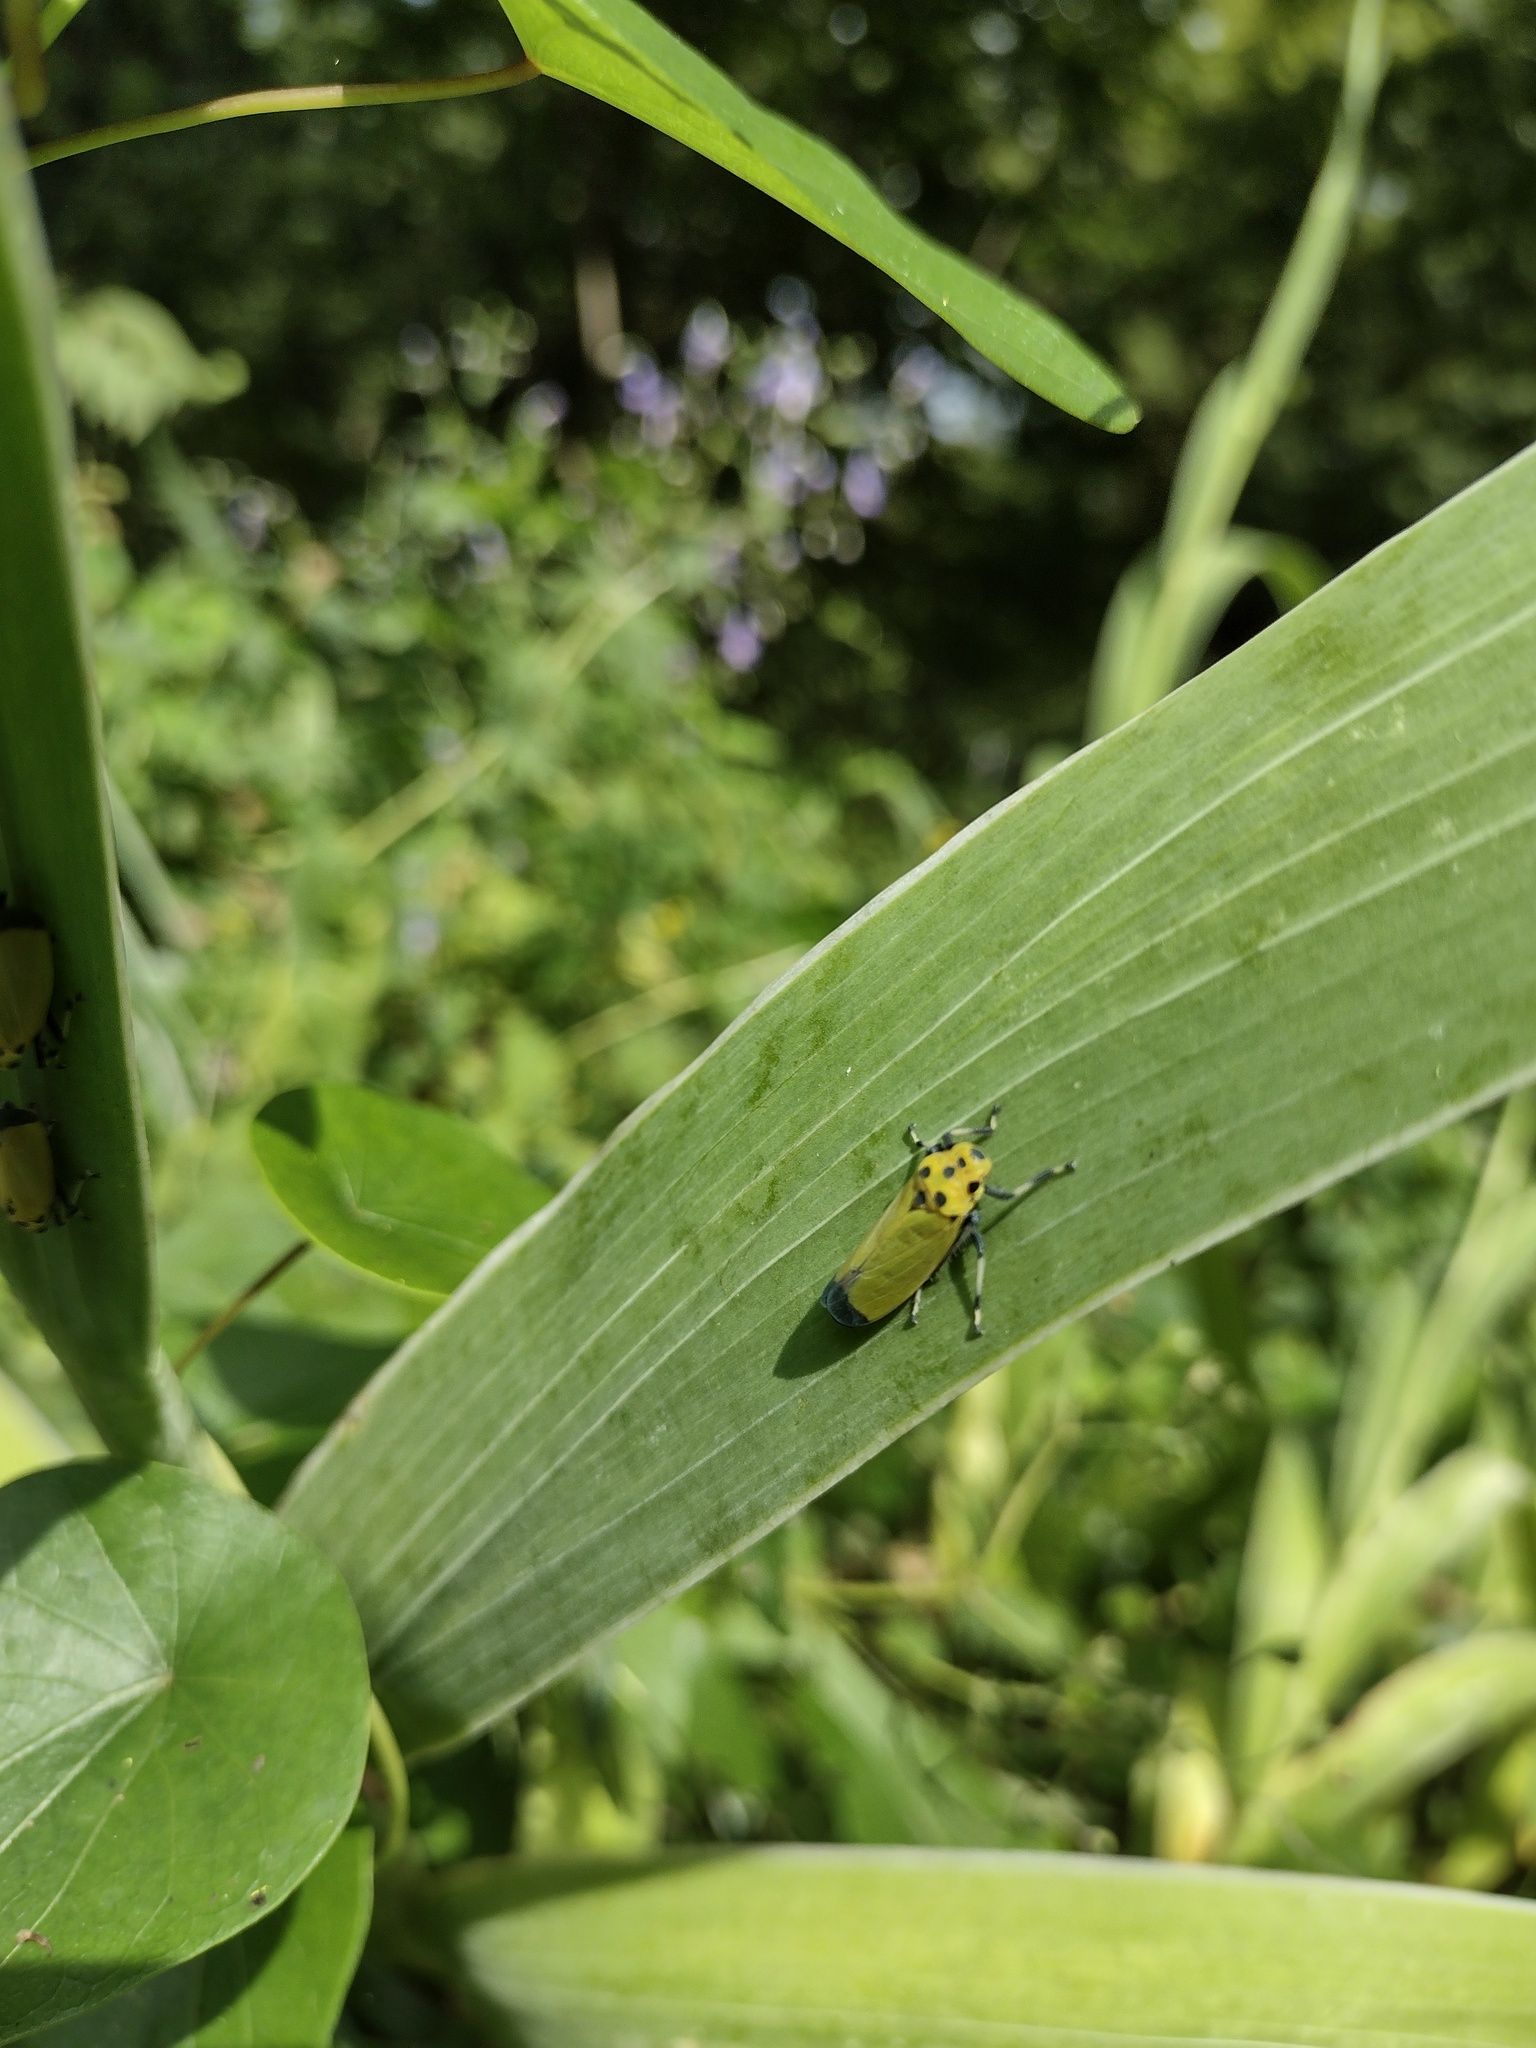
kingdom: Animalia
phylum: Arthropoda
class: Insecta
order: Hemiptera
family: Cicadellidae
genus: Bothrogonia
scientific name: Bothrogonia ferruginea
